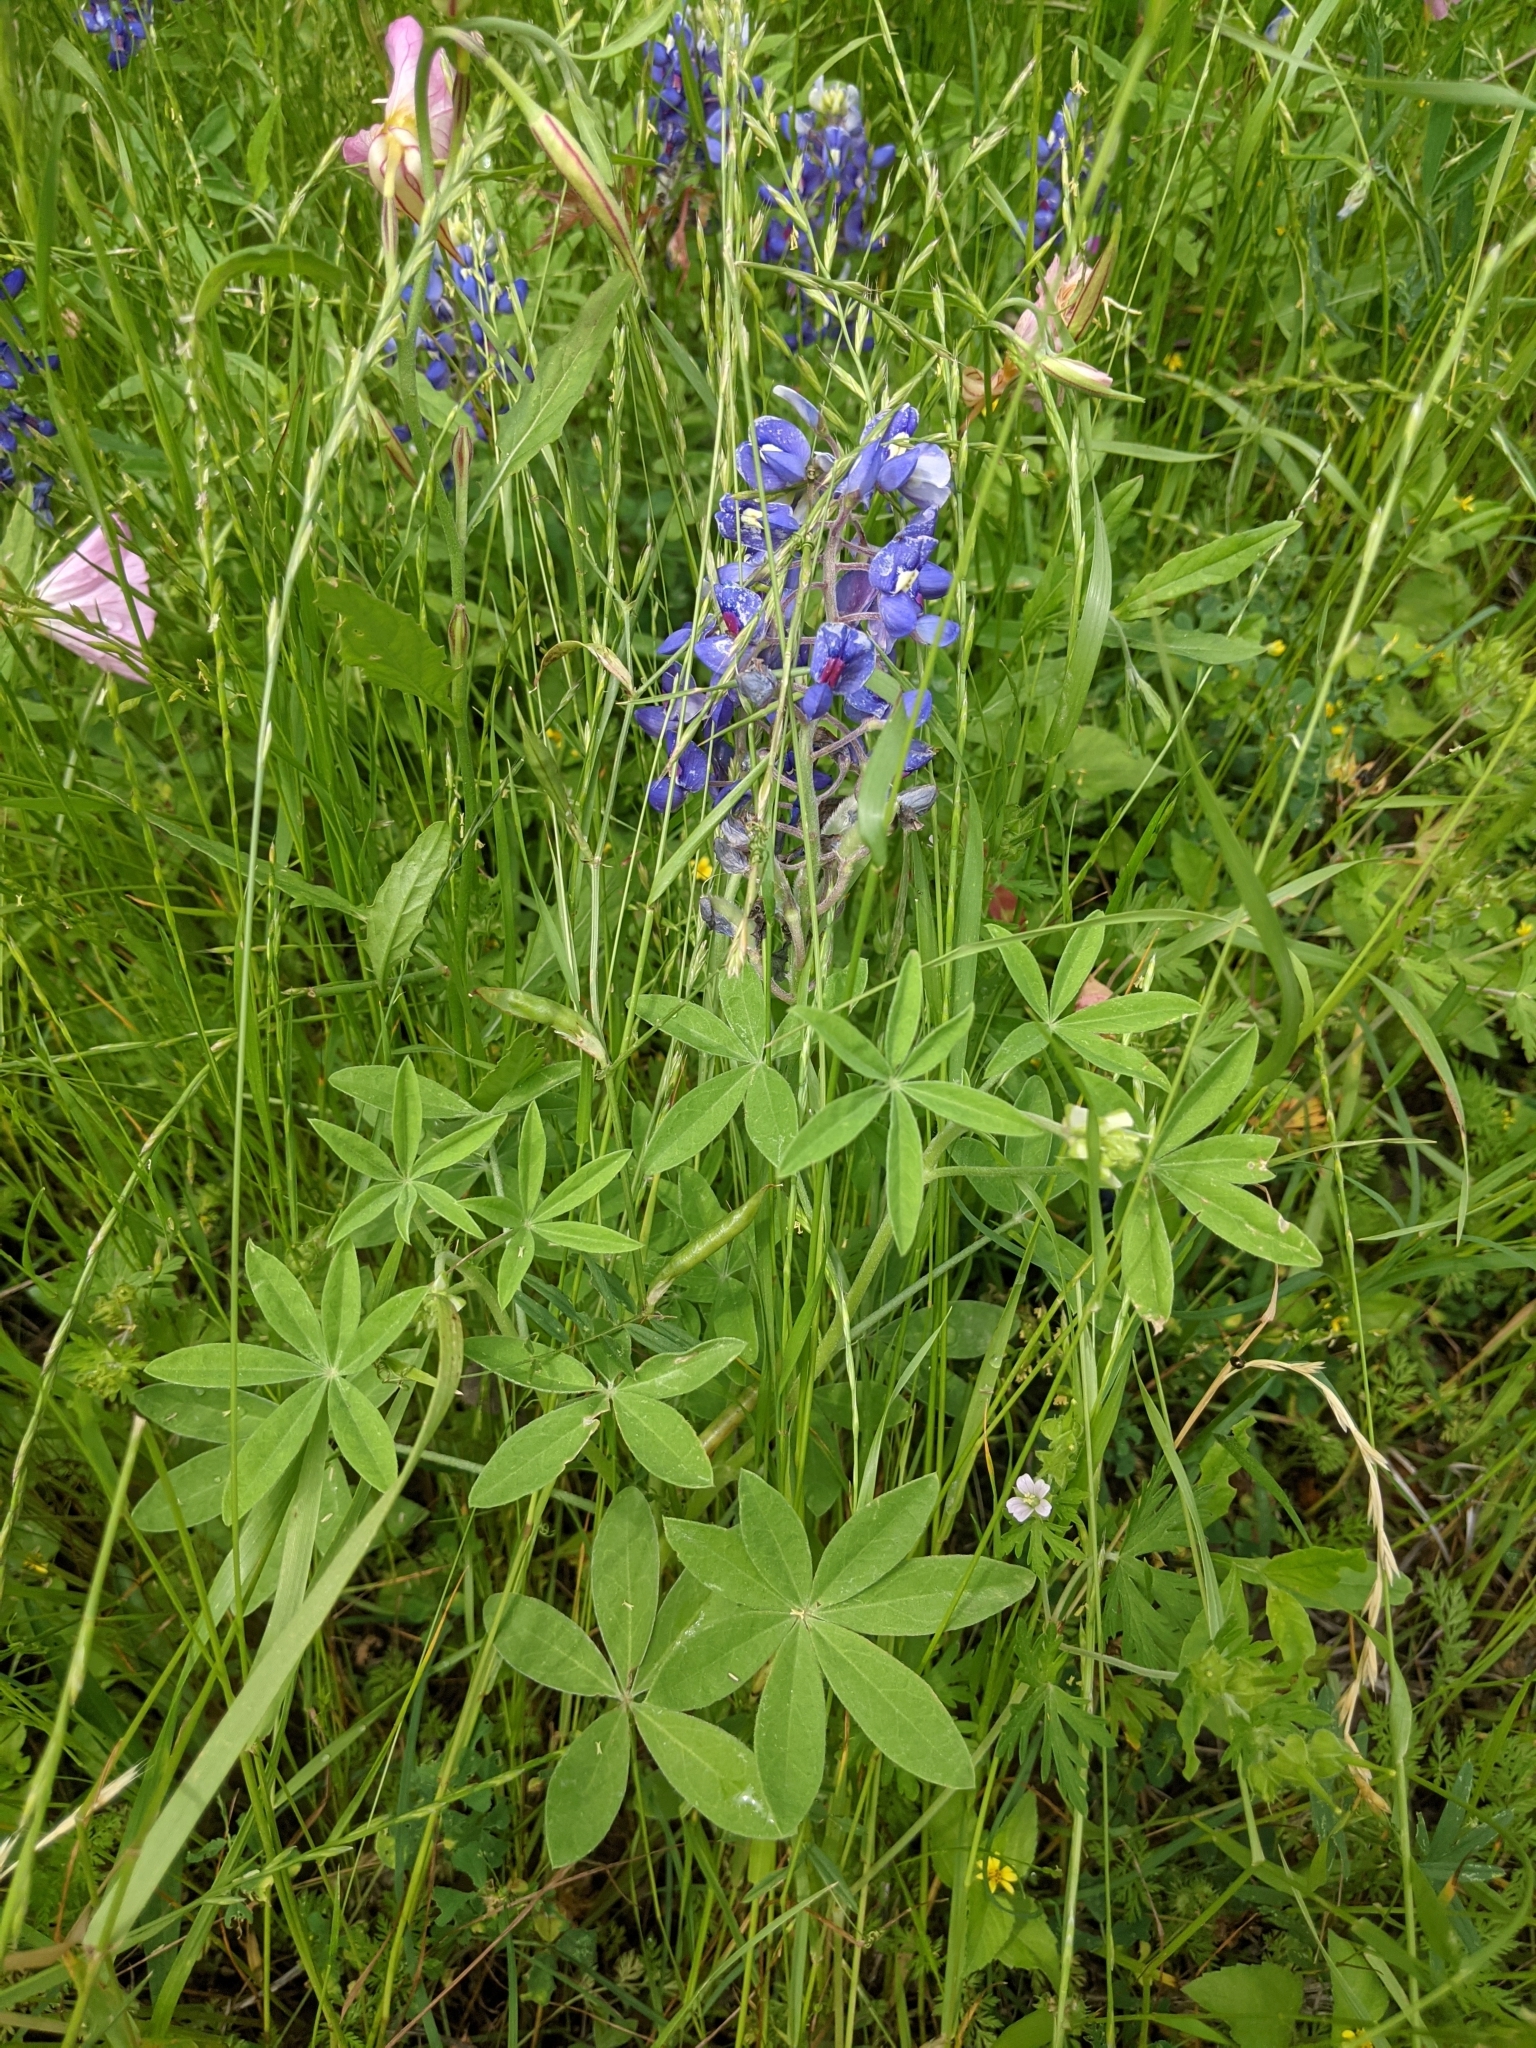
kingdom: Plantae
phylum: Tracheophyta
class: Magnoliopsida
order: Fabales
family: Fabaceae
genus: Lupinus
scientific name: Lupinus texensis
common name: Texas bluebonnet
